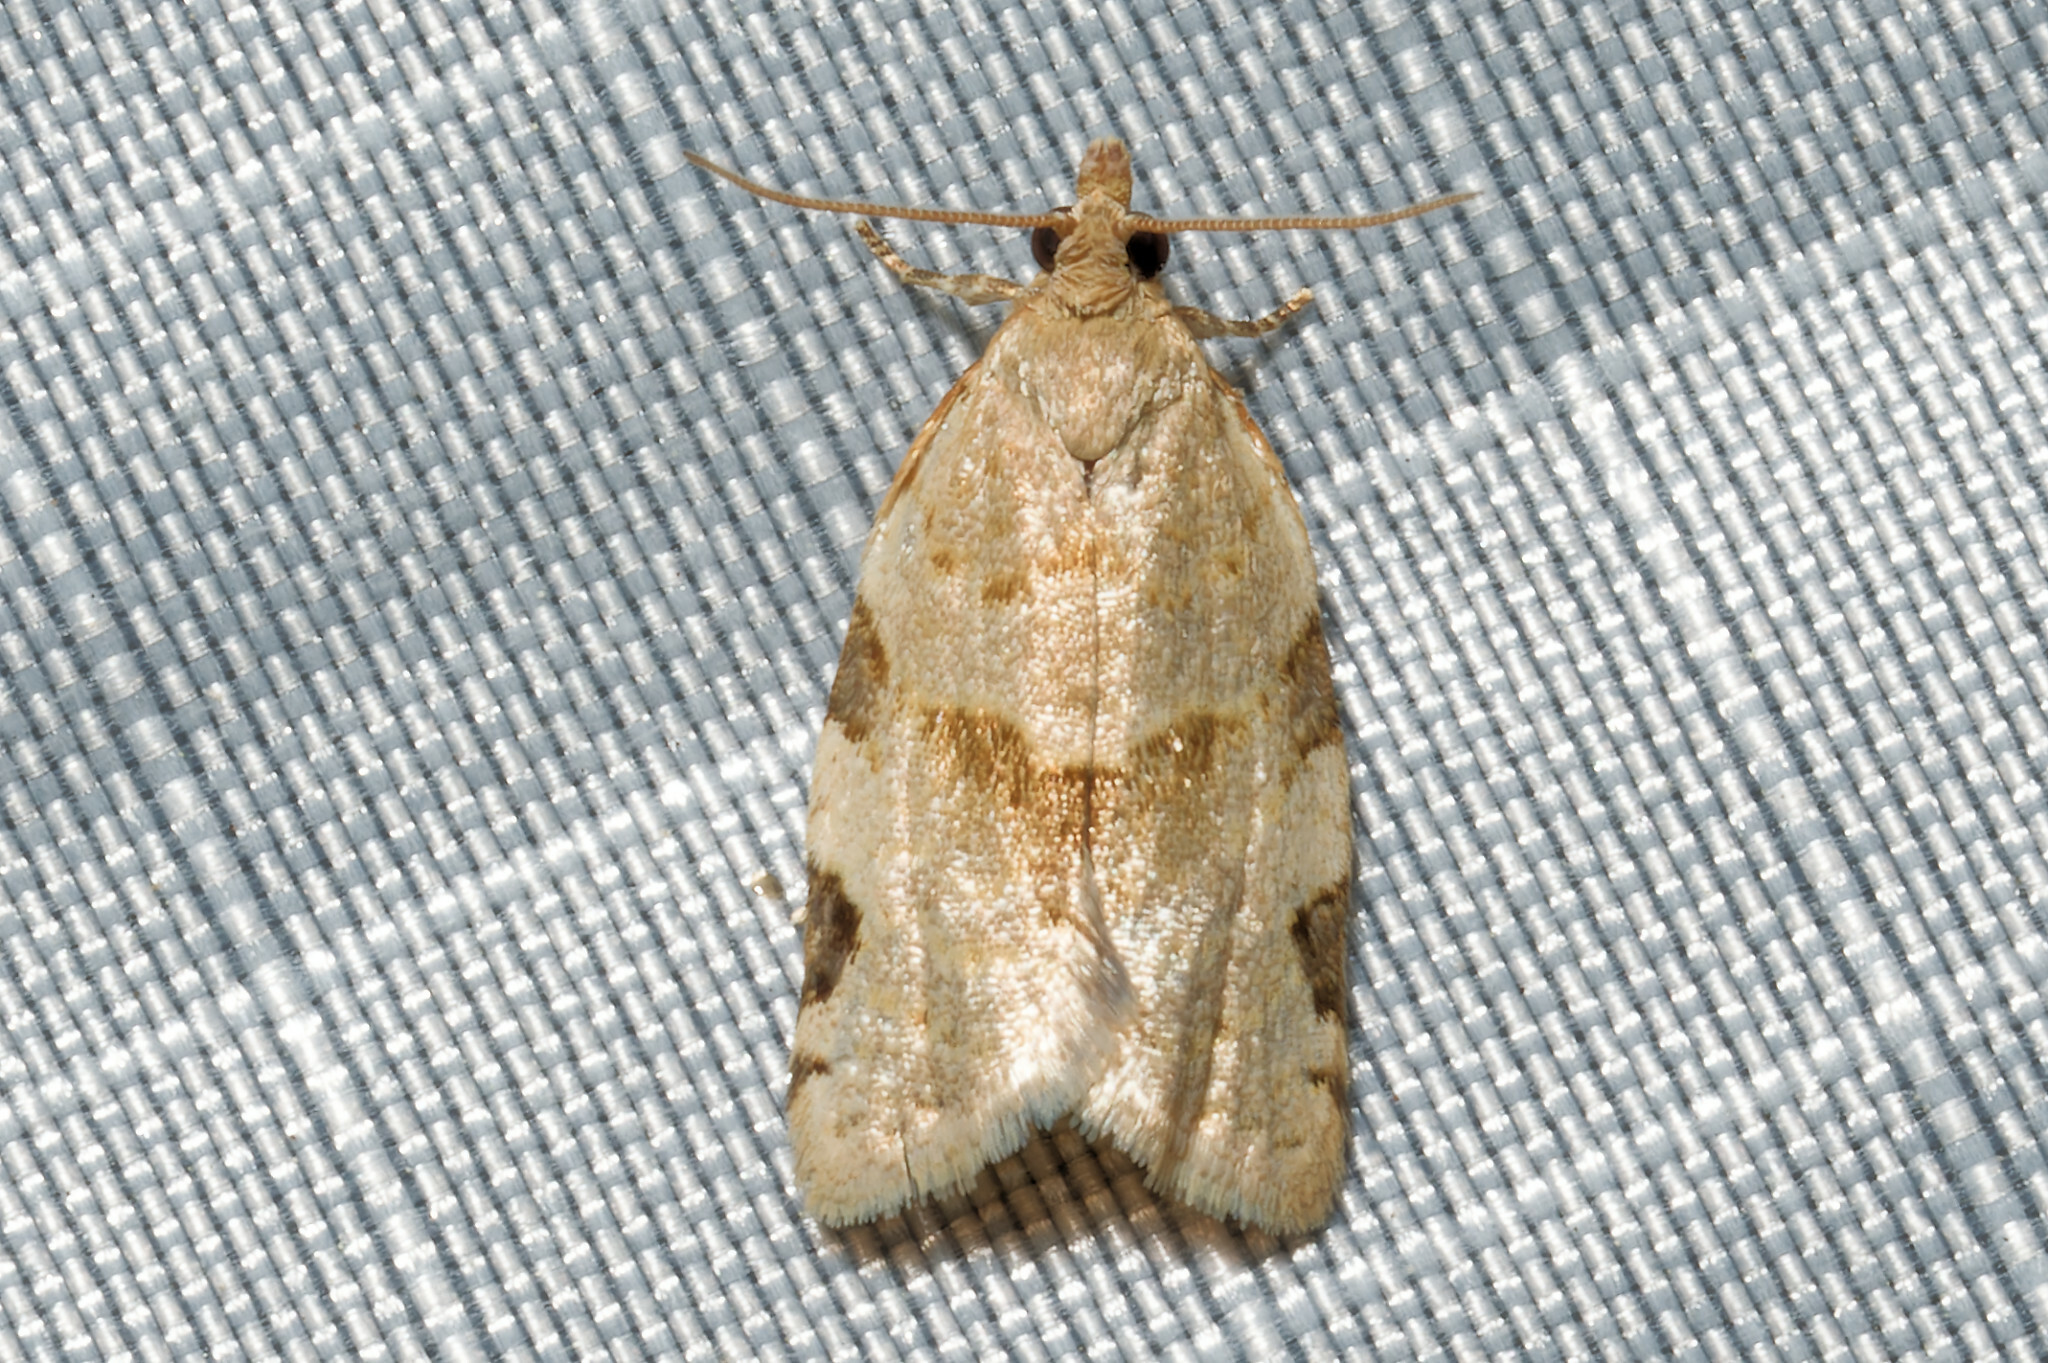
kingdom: Animalia
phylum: Arthropoda
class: Insecta
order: Lepidoptera
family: Tortricidae
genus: Clepsis
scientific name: Clepsis virescana
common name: Greenish apple moth
